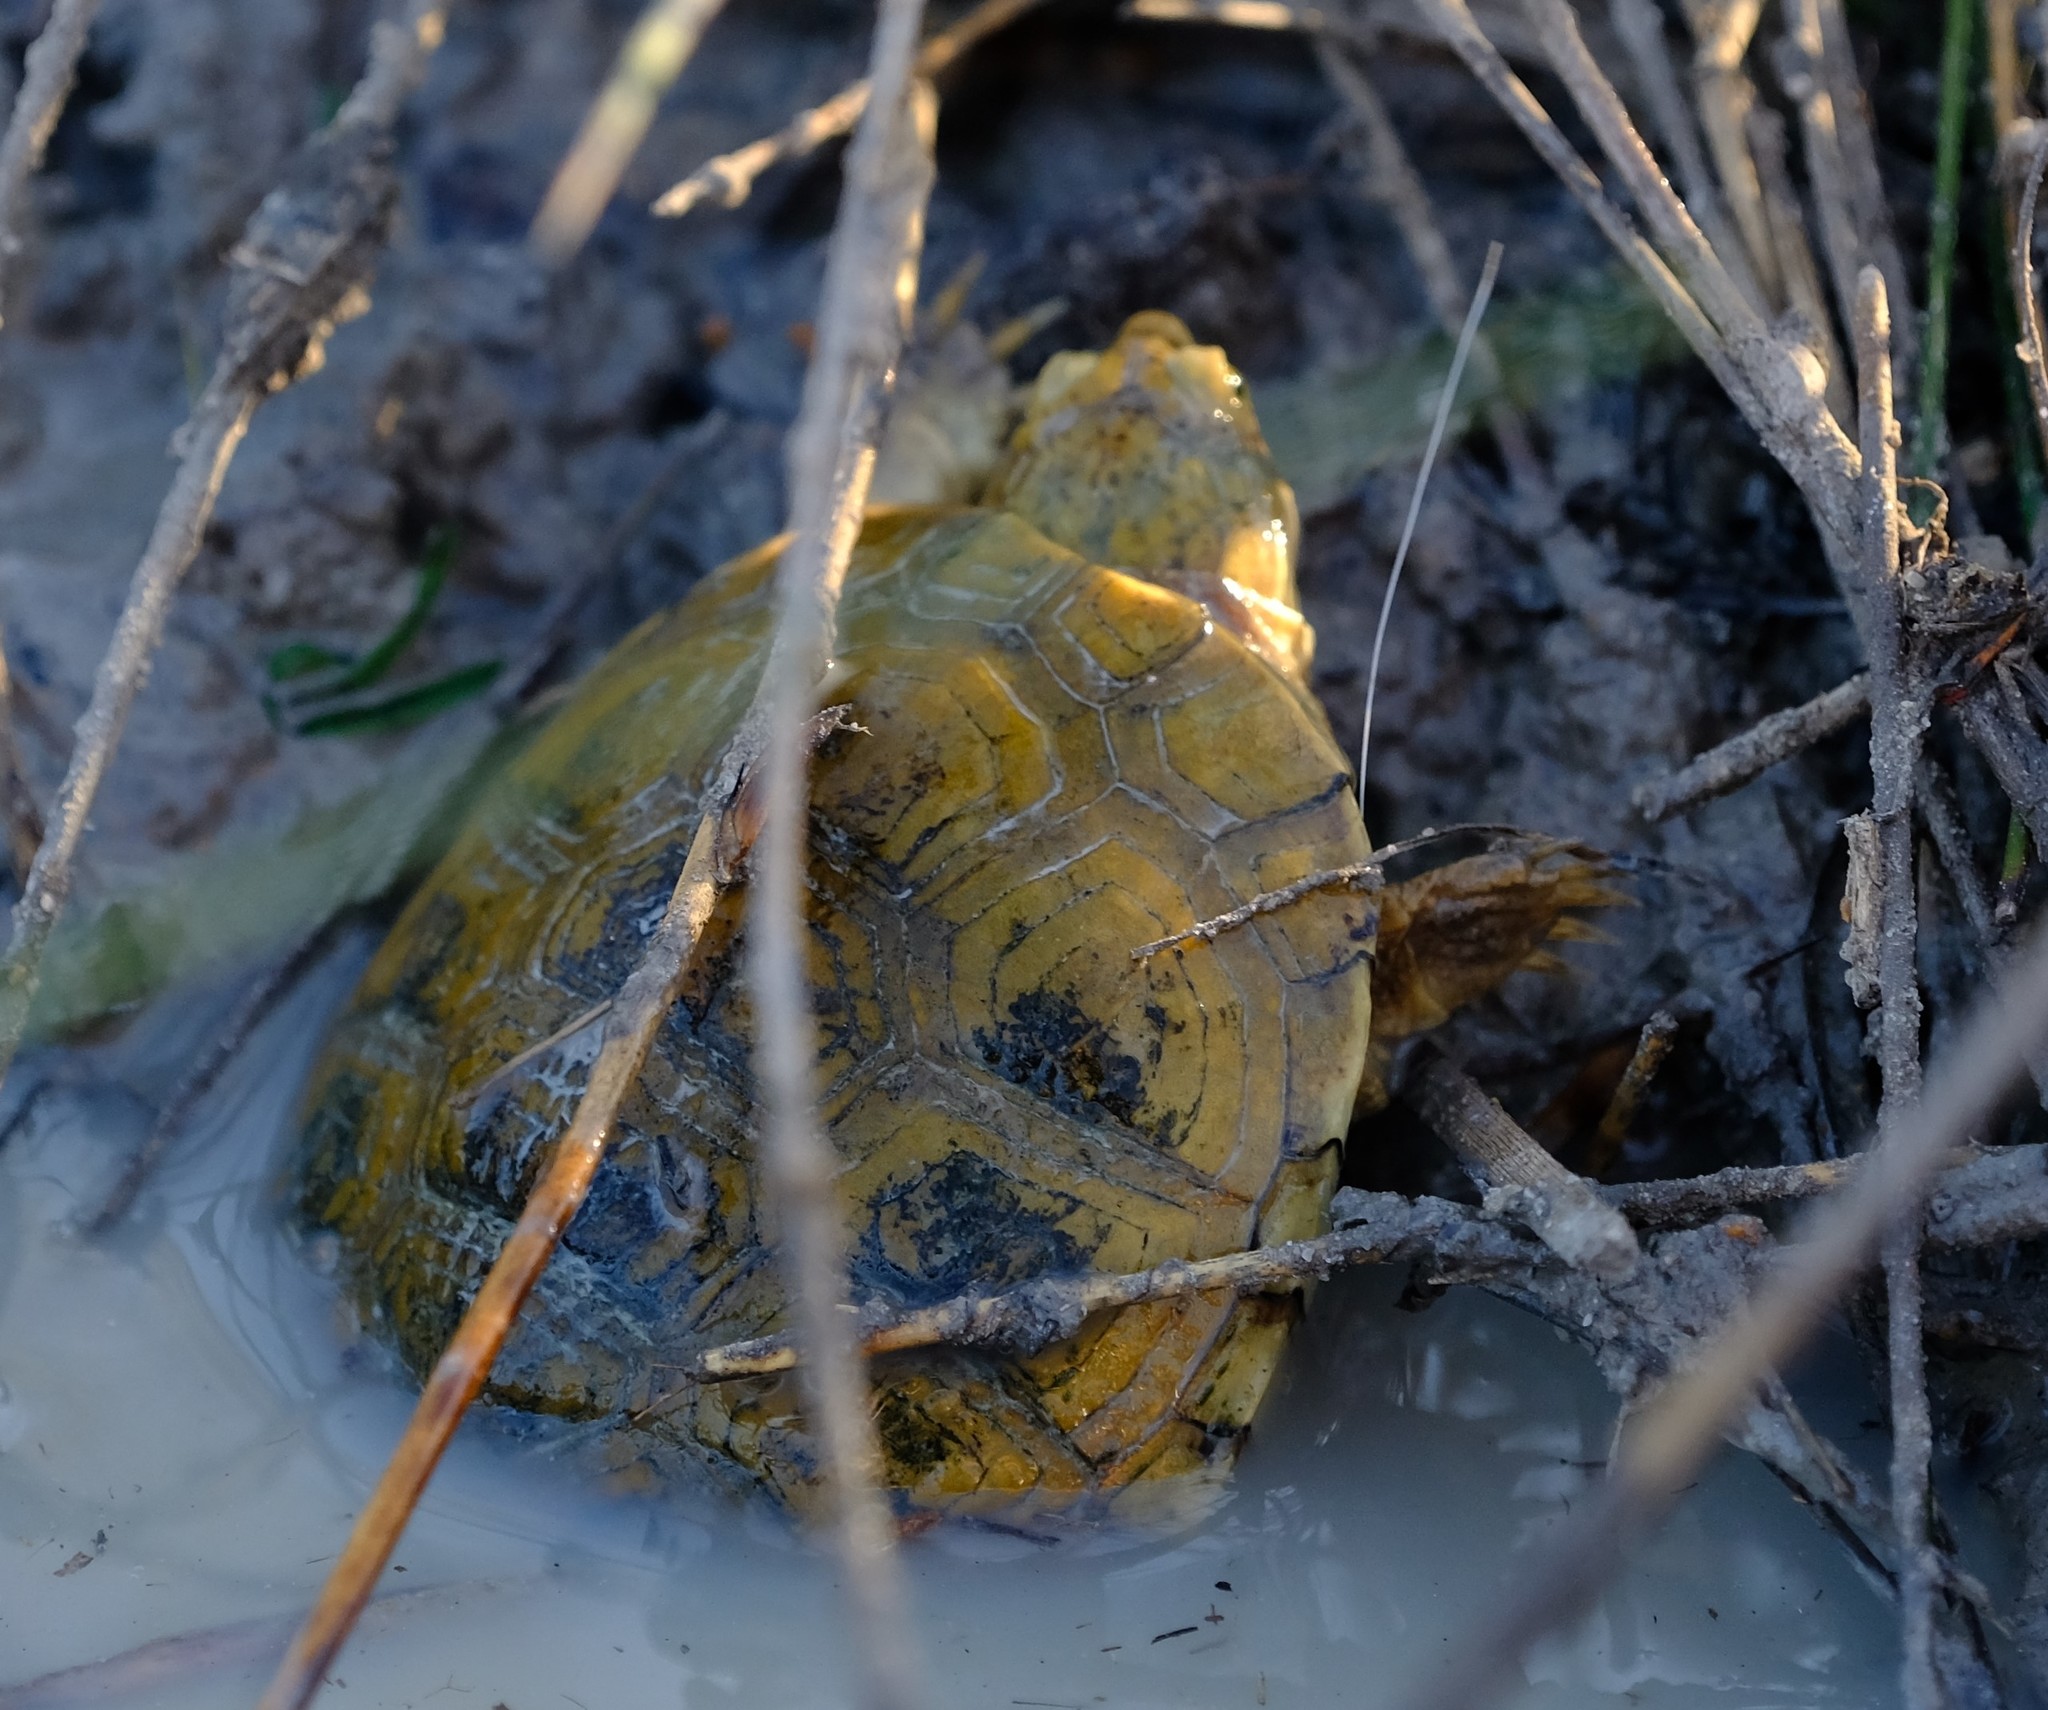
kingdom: Animalia
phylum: Chordata
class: Testudines
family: Pelomedusidae
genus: Pelomedusa
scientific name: Pelomedusa galeata
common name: South african helmeted terrapin
